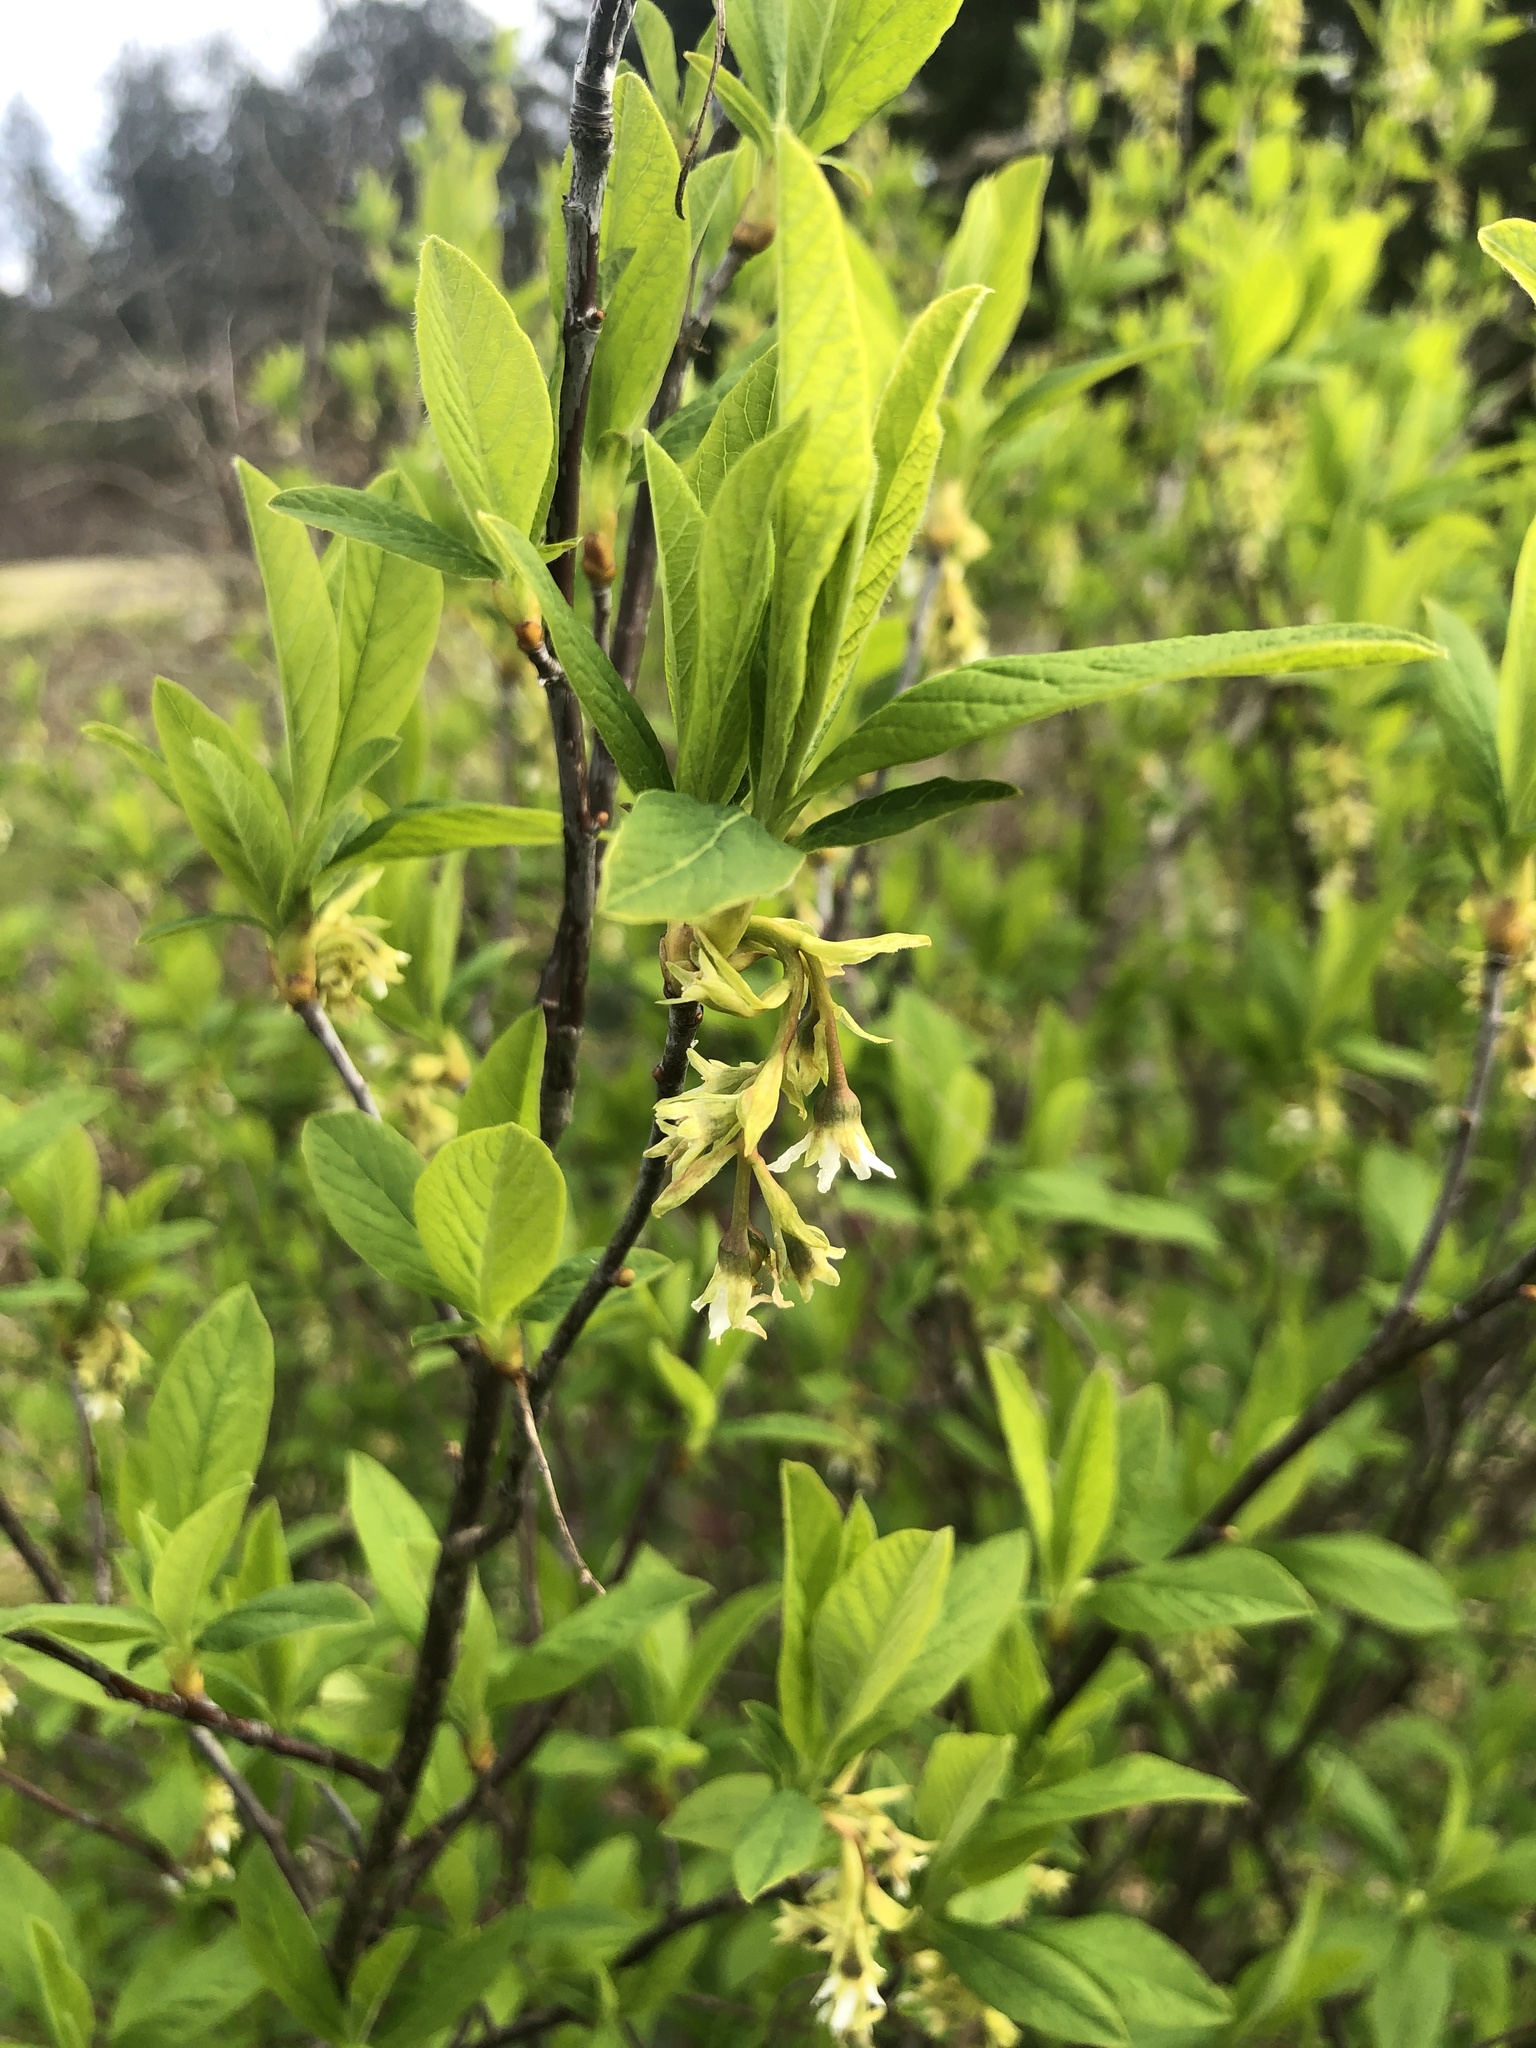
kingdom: Plantae
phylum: Tracheophyta
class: Magnoliopsida
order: Rosales
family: Rosaceae
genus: Oemleria
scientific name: Oemleria cerasiformis
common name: Osoberry
